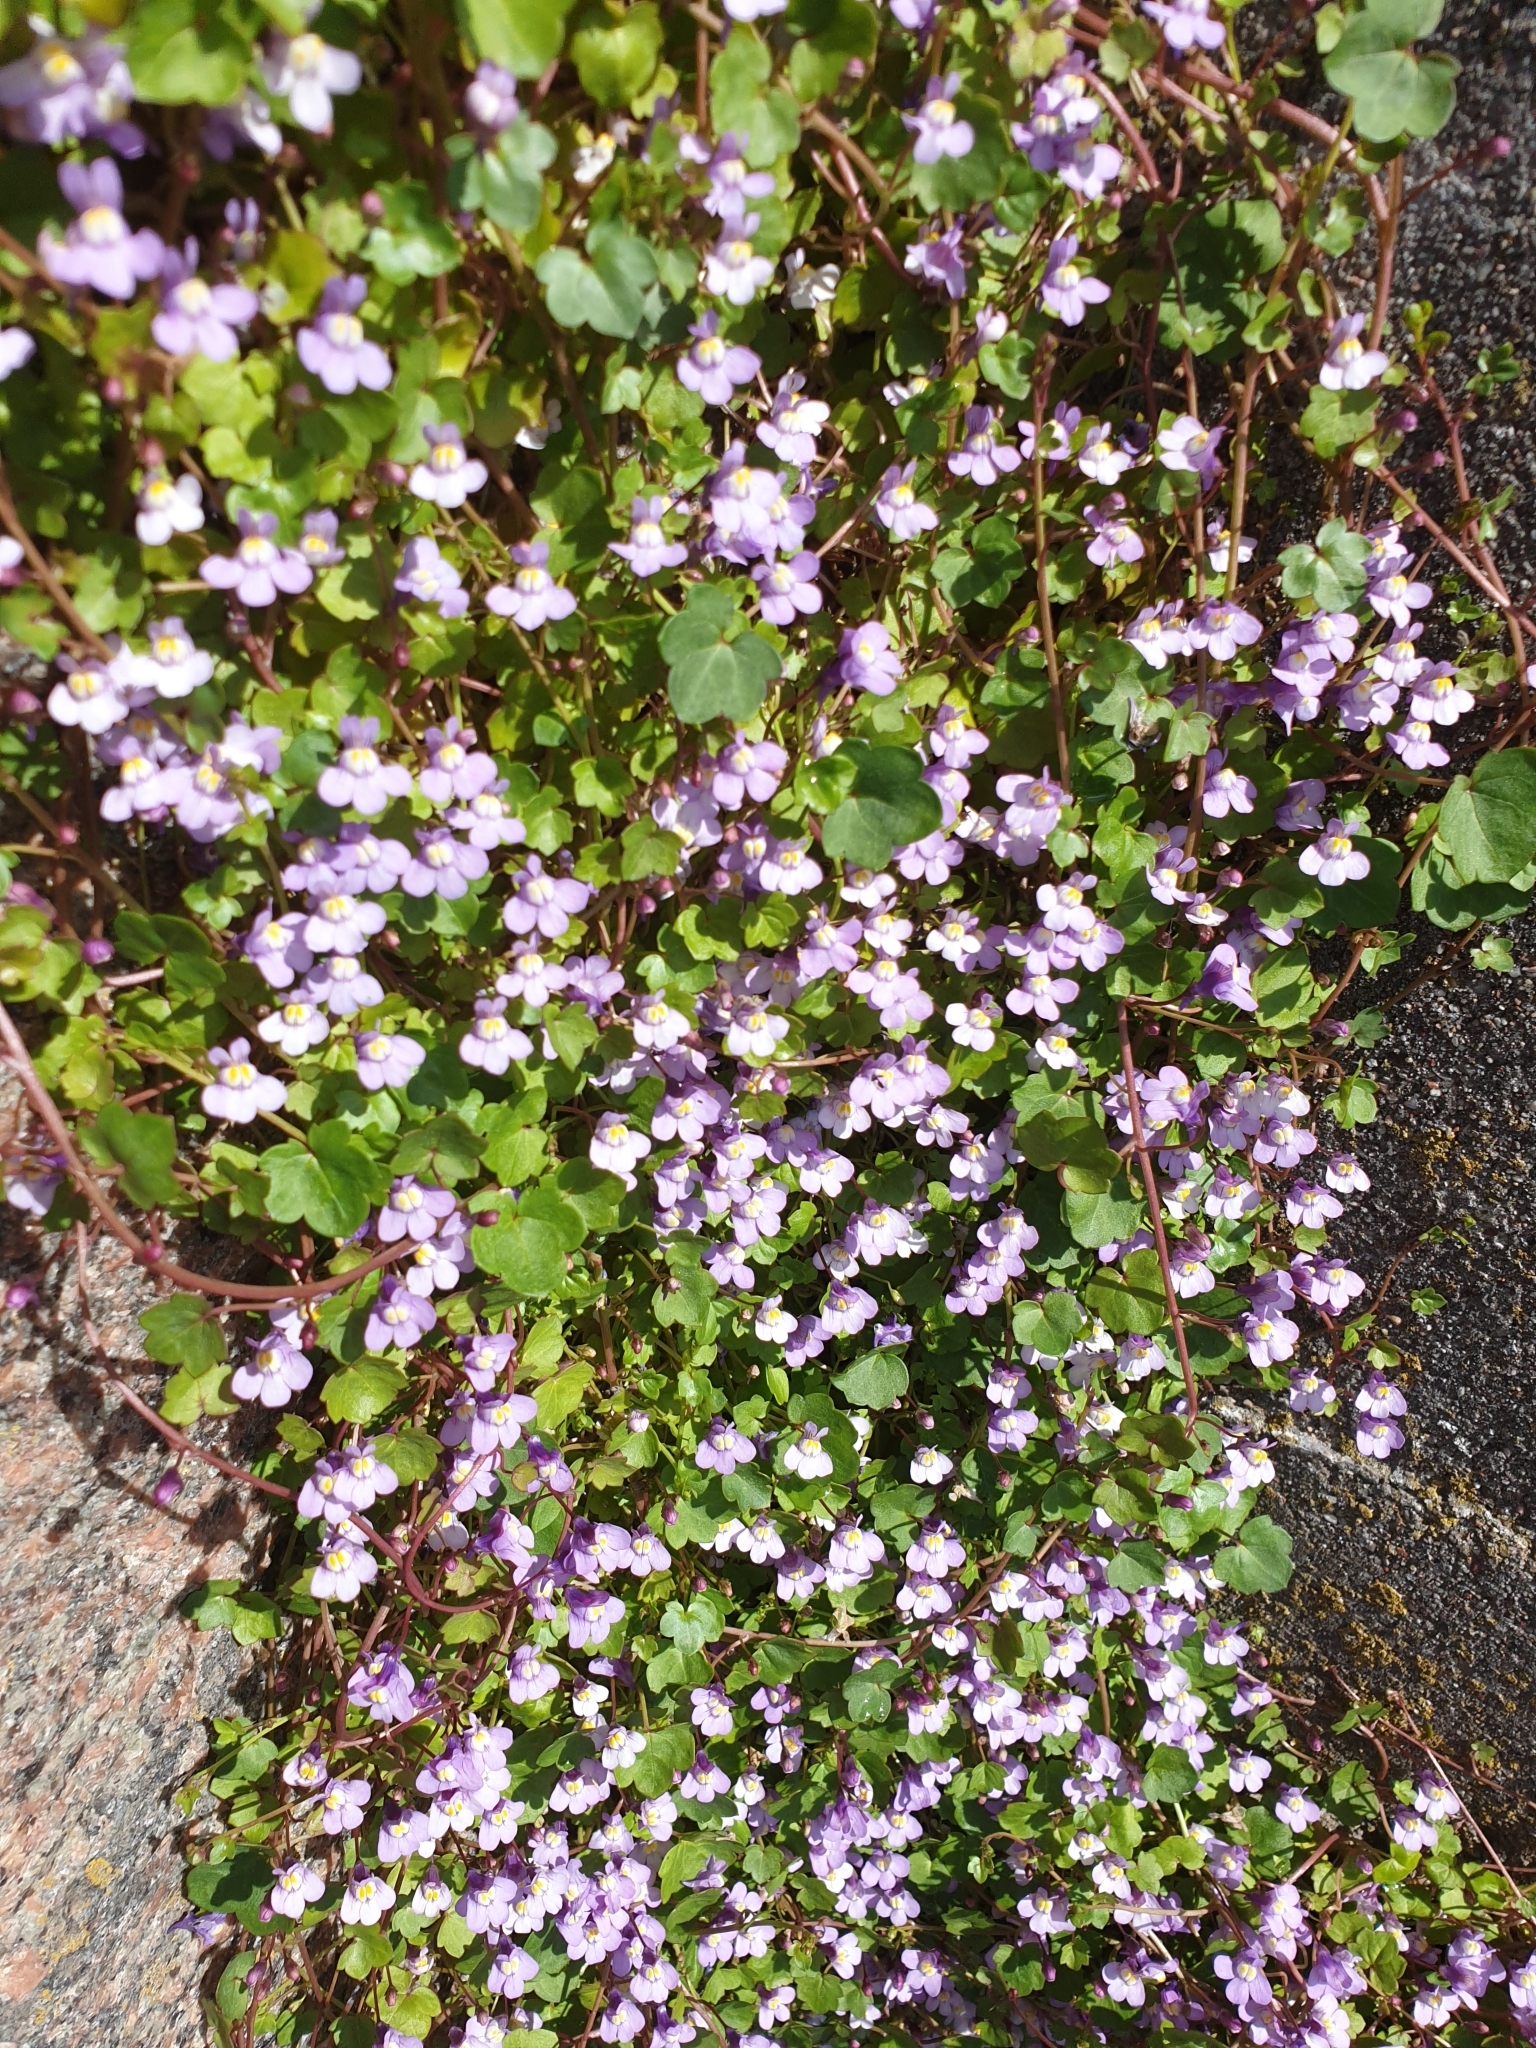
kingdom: Plantae
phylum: Tracheophyta
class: Magnoliopsida
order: Lamiales
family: Plantaginaceae
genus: Cymbalaria
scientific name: Cymbalaria muralis
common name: Ivy-leaved toadflax
